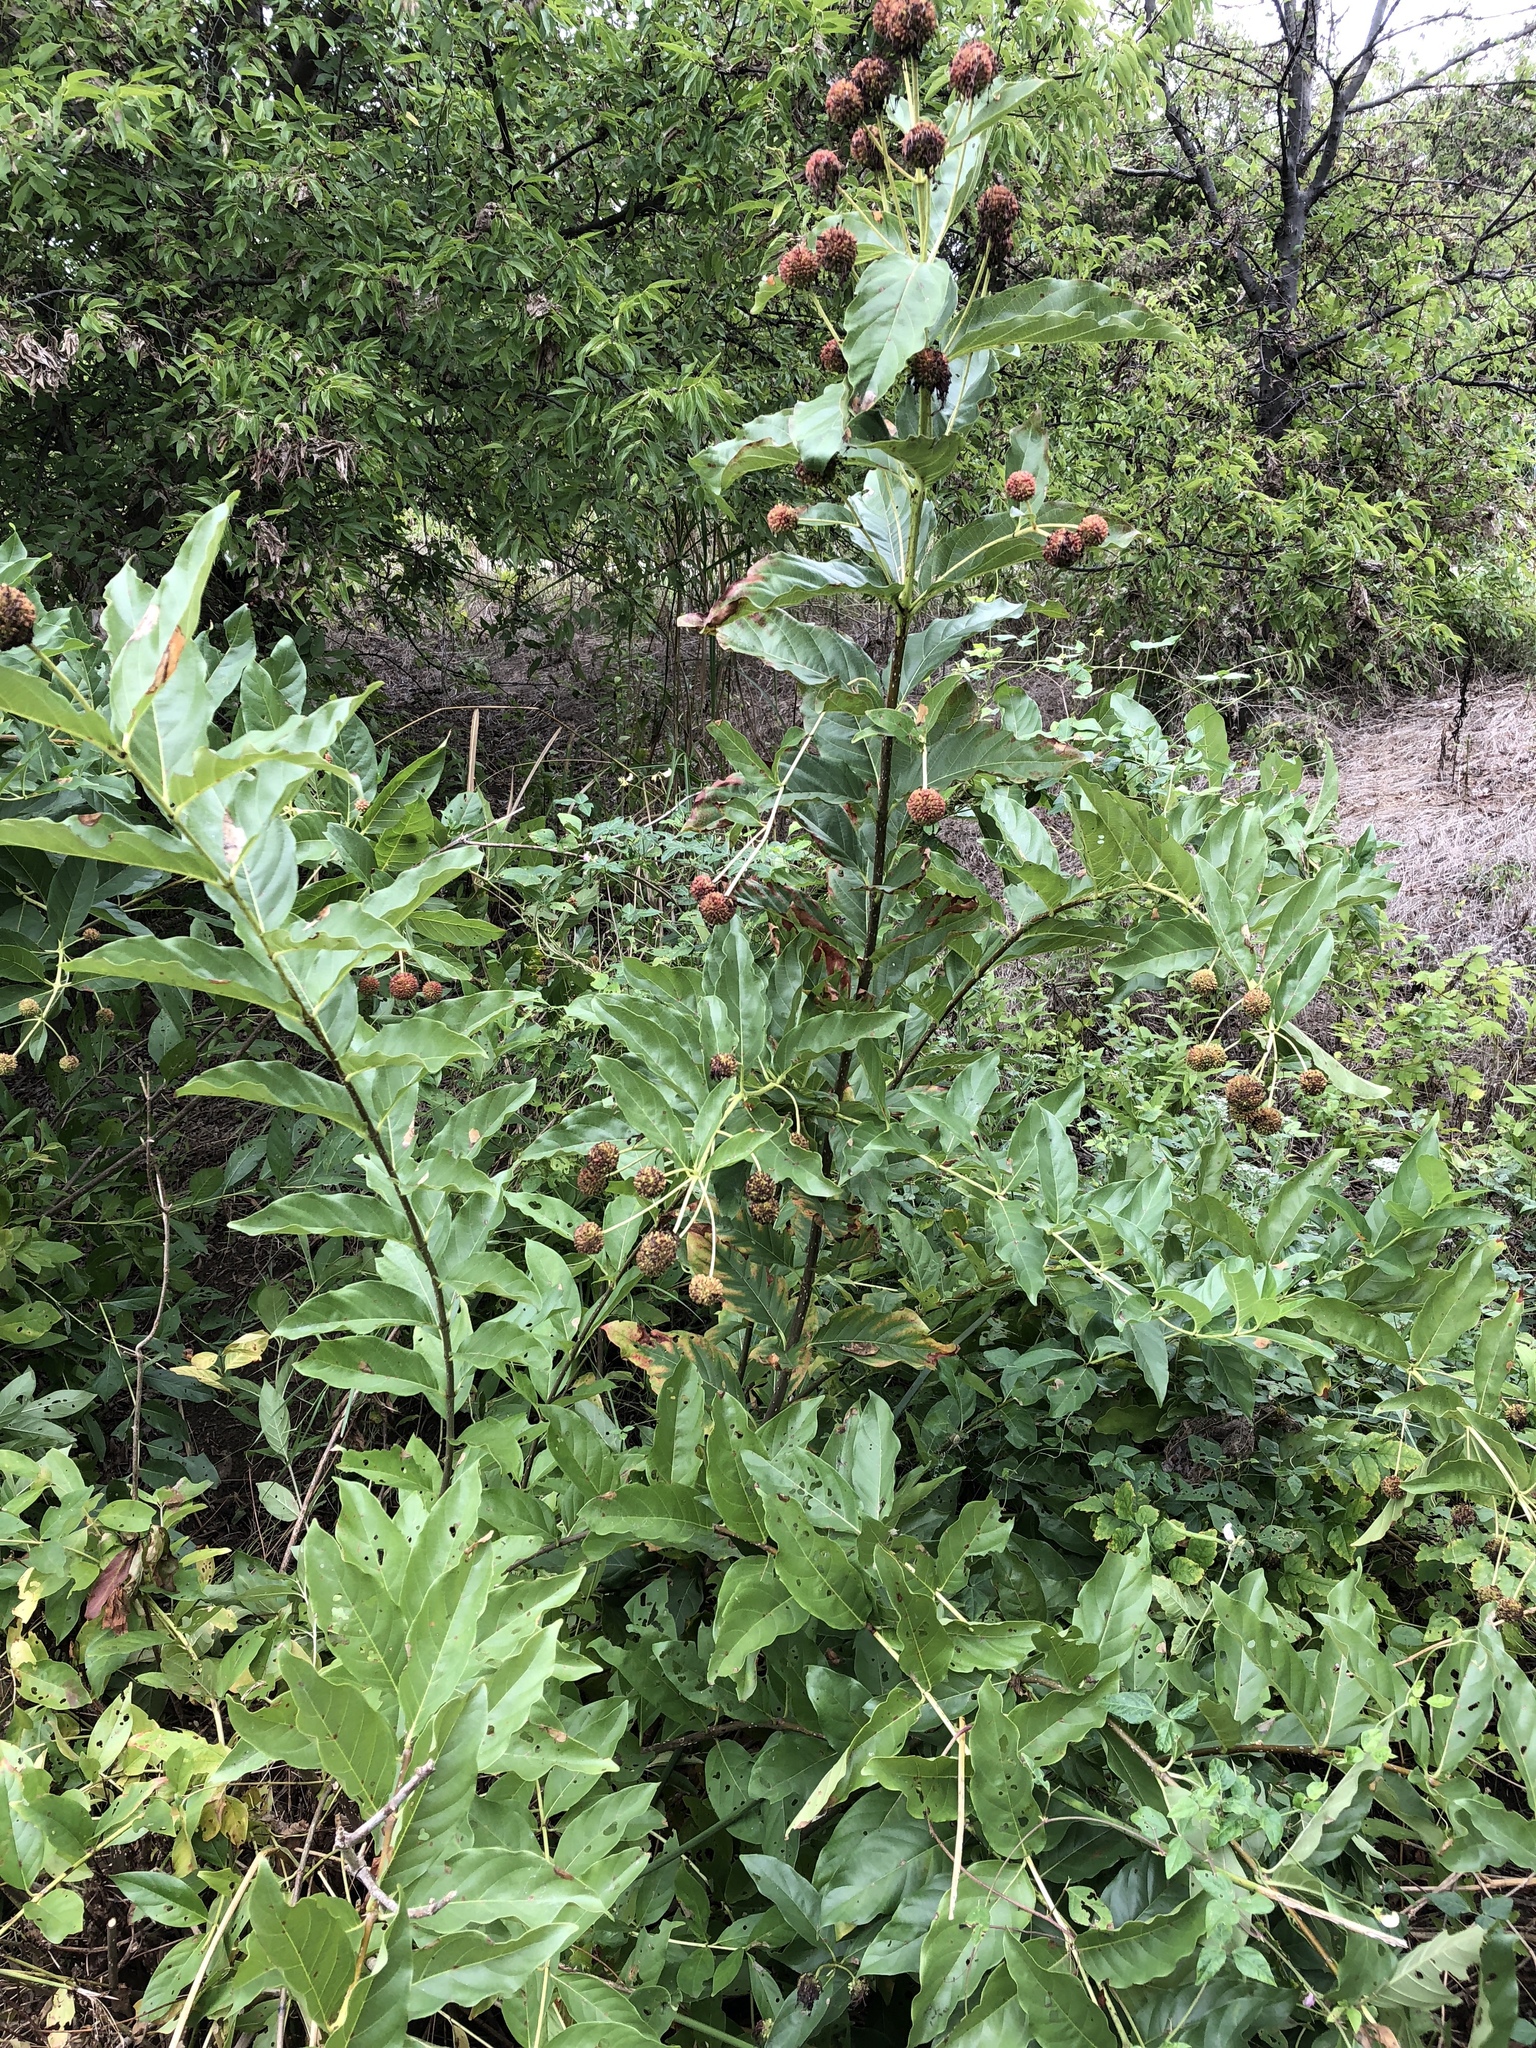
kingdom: Plantae
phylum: Tracheophyta
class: Magnoliopsida
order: Gentianales
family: Rubiaceae
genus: Cephalanthus
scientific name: Cephalanthus occidentalis
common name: Button-willow
